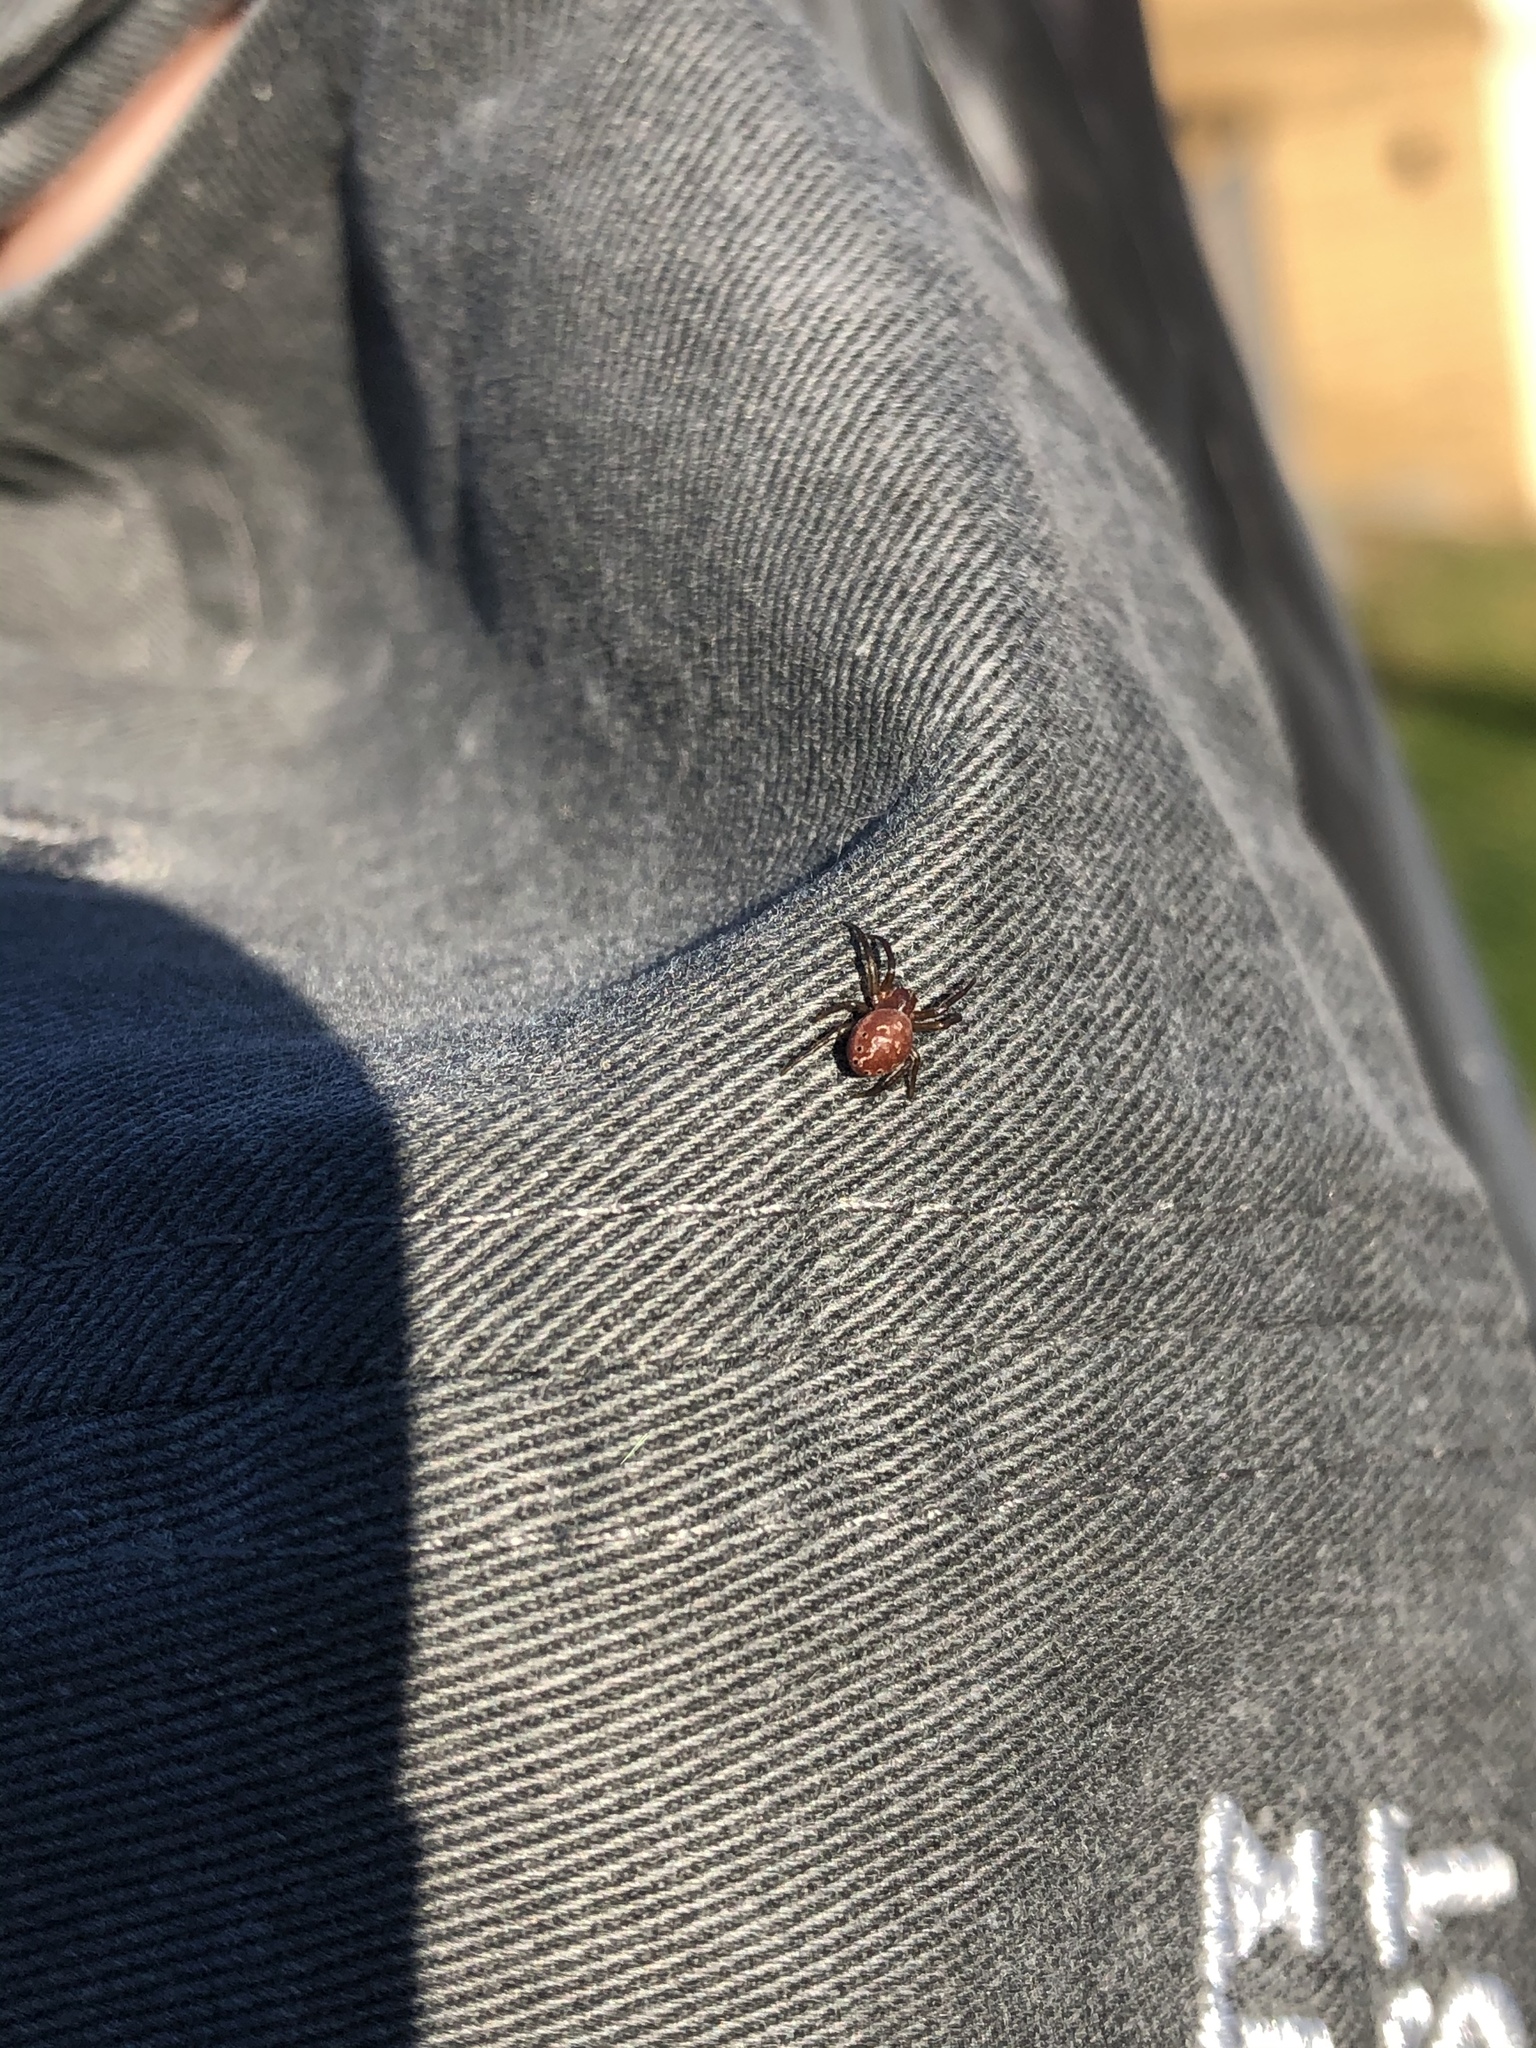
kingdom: Animalia
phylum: Arthropoda
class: Arachnida
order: Araneae
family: Araneidae
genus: Araniella
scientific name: Araniella displicata
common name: Sixspotted orb weaver
